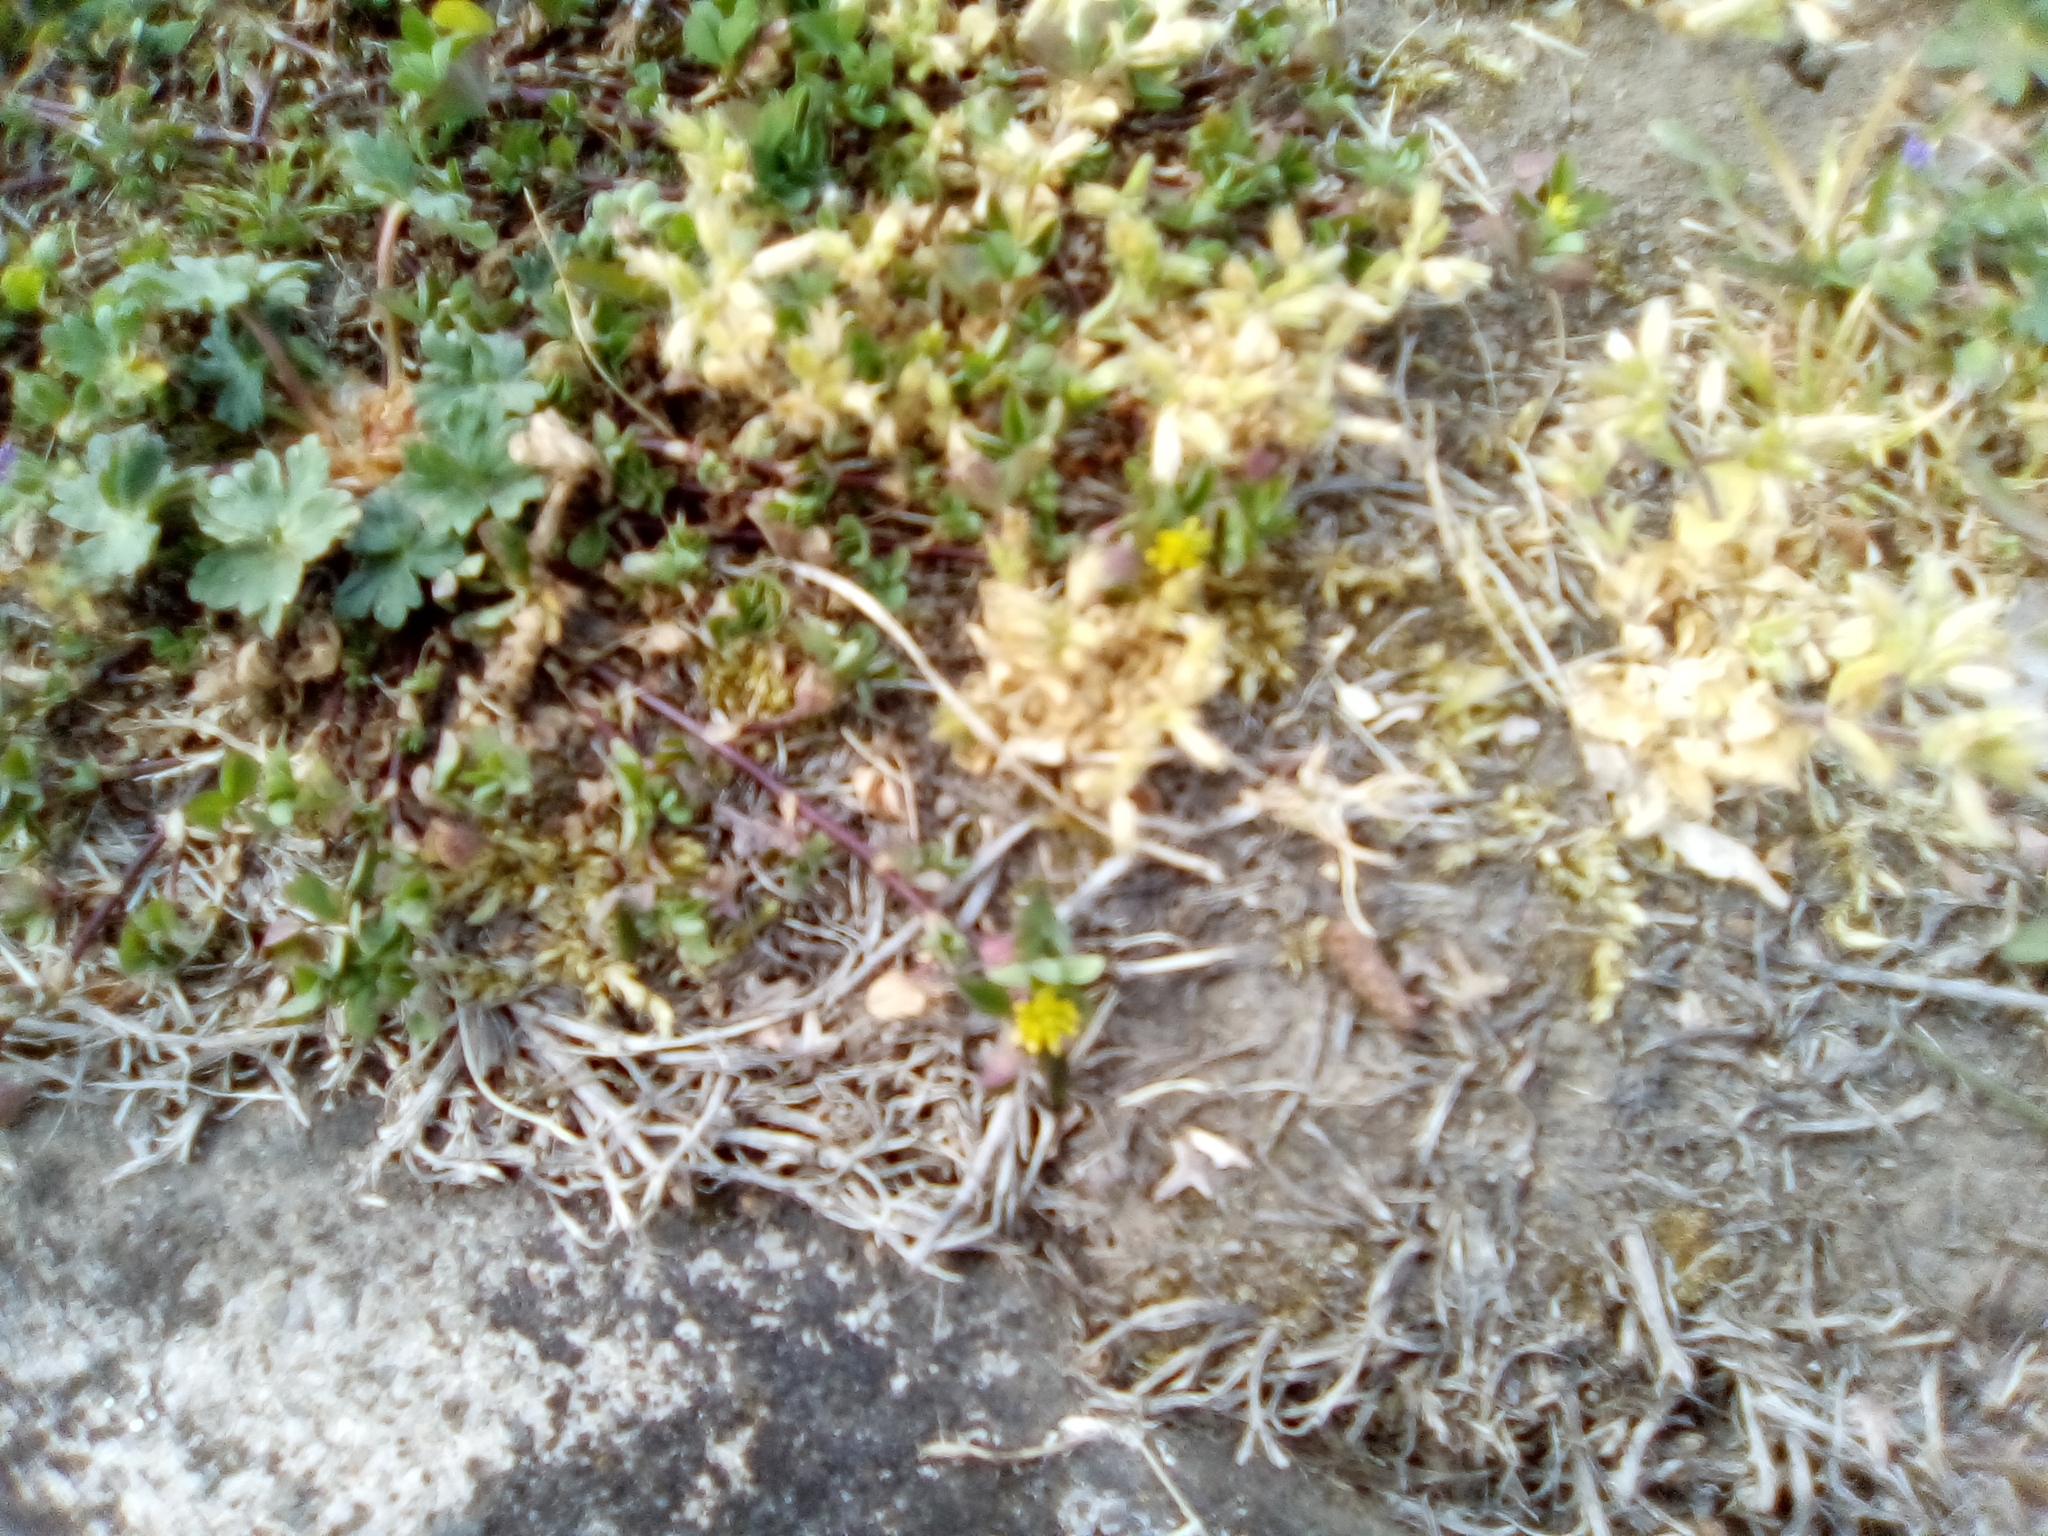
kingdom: Plantae
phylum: Tracheophyta
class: Magnoliopsida
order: Fabales
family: Fabaceae
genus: Trifolium
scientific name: Trifolium dubium
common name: Suckling clover
